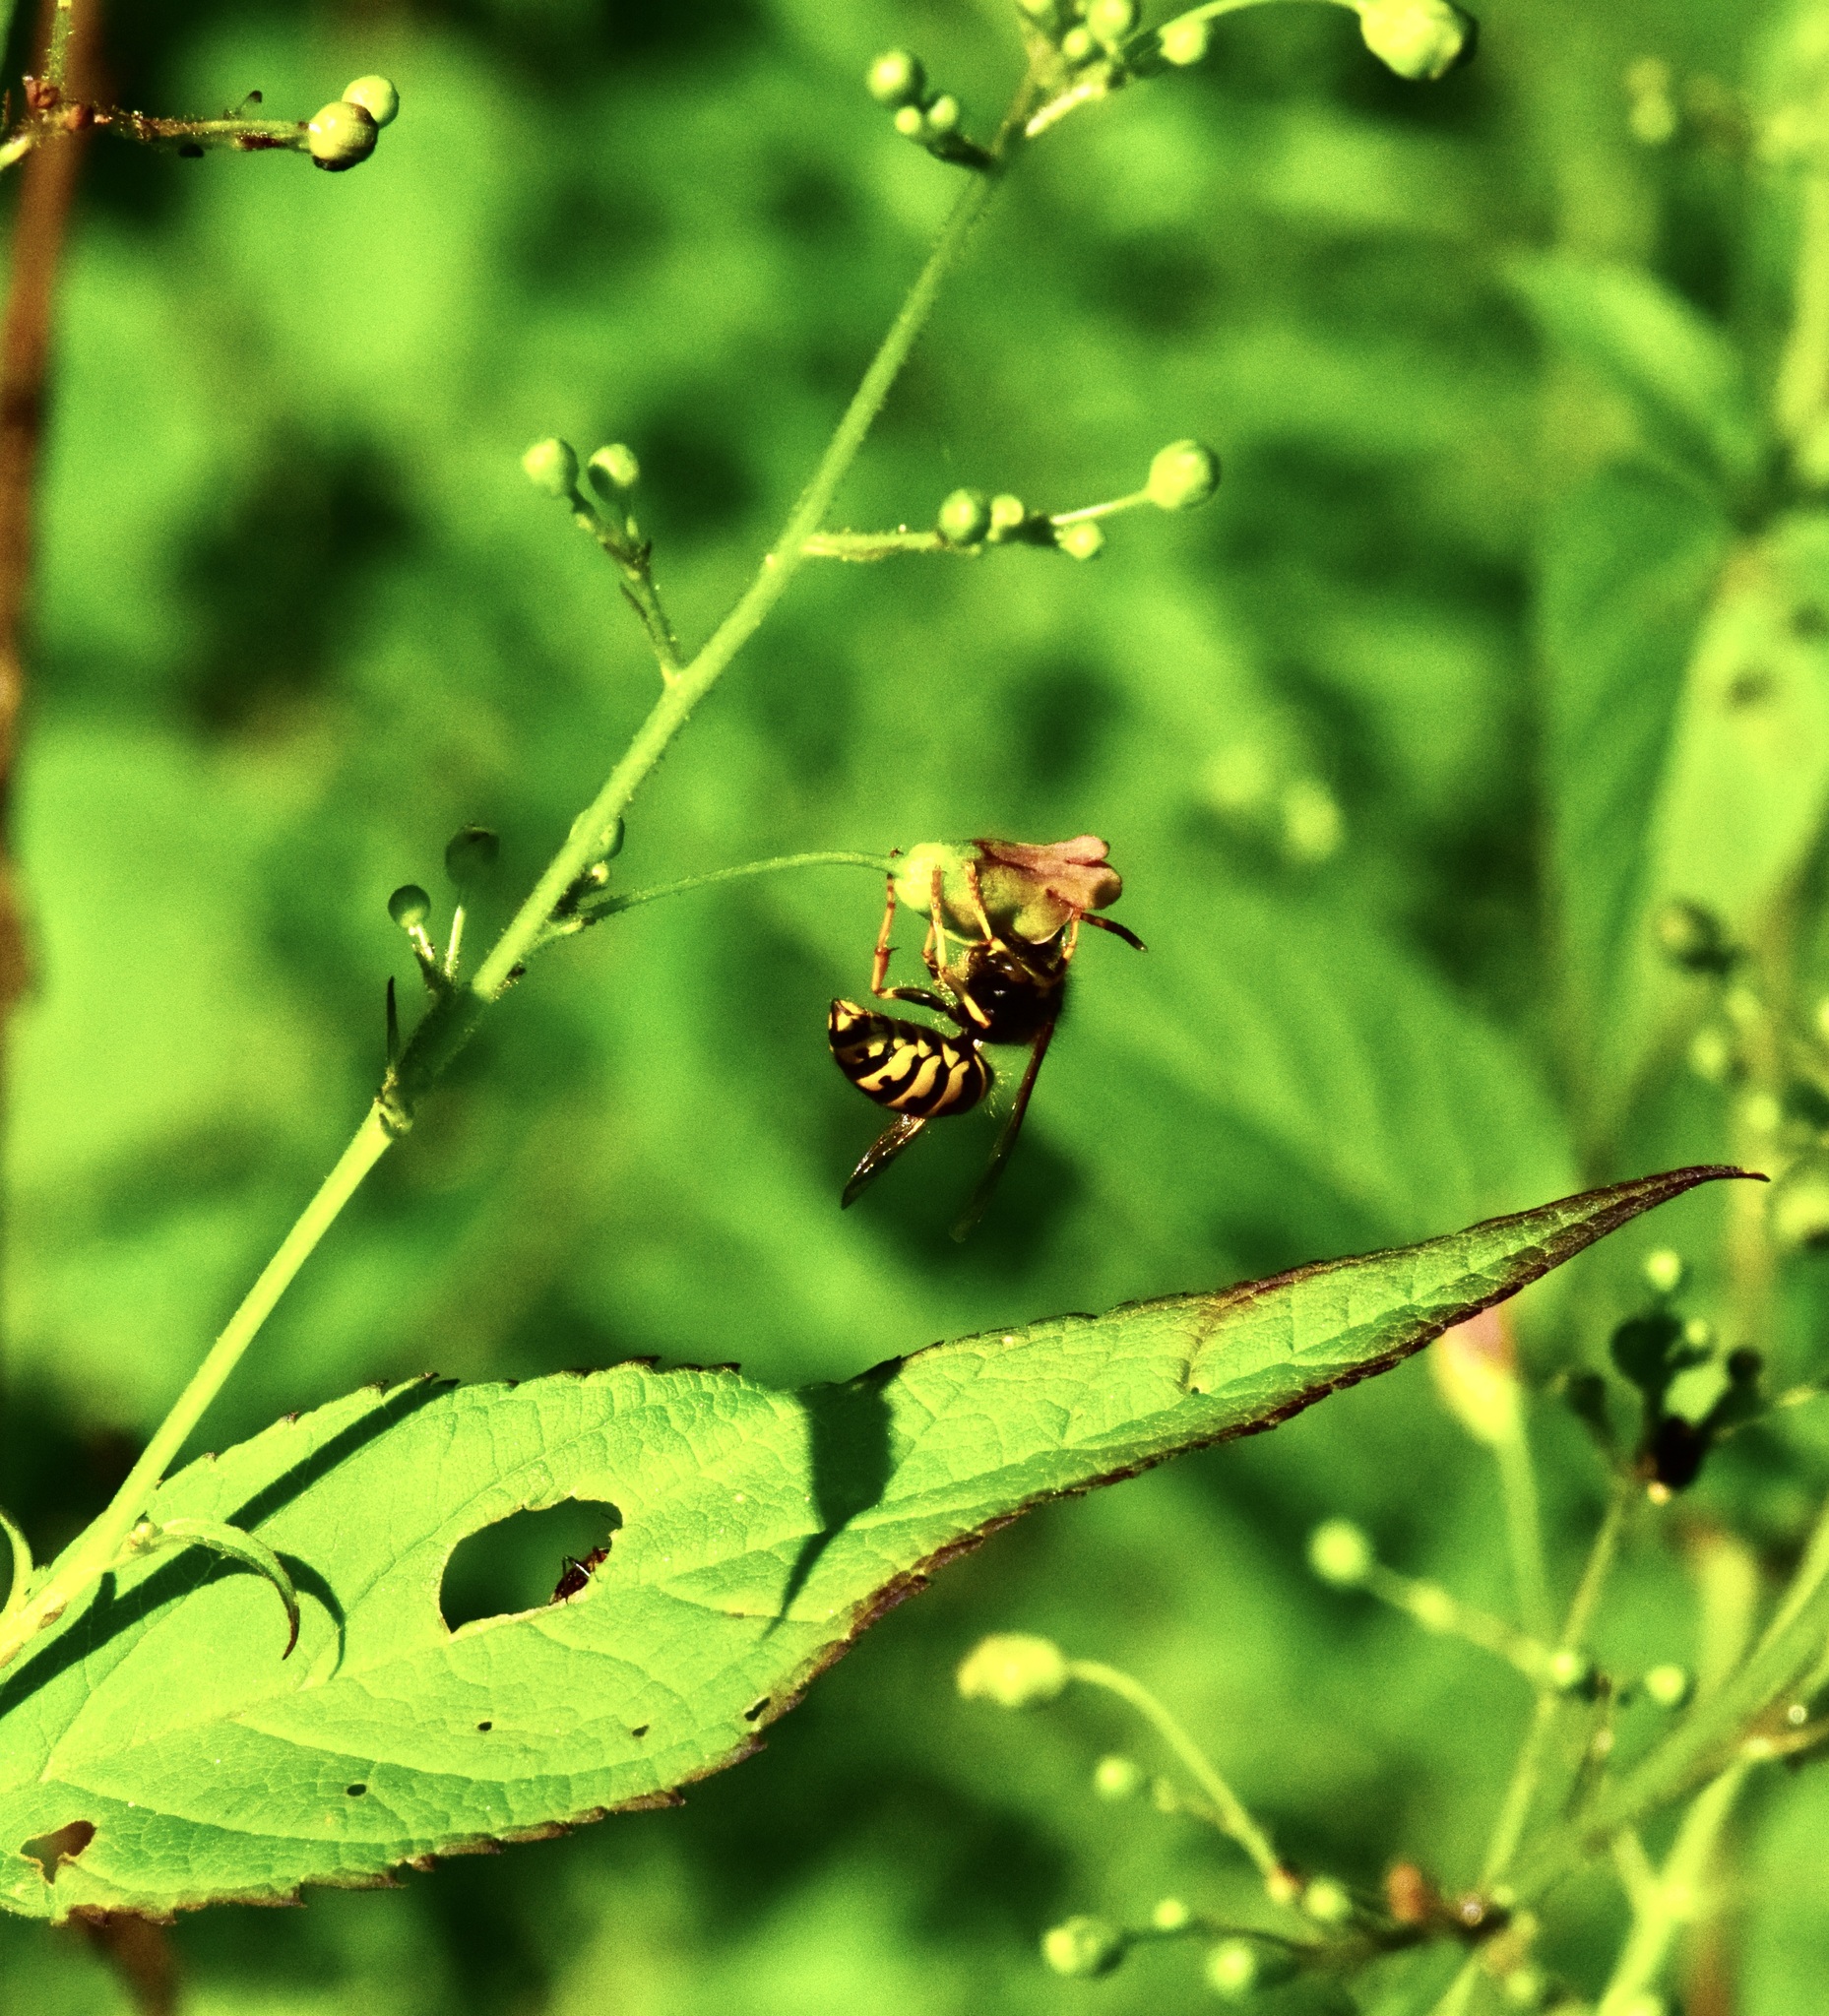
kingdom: Animalia
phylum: Arthropoda
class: Insecta
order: Hymenoptera
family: Vespidae
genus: Dolichovespula
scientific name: Dolichovespula arenaria
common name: Aerial yellowjacket
